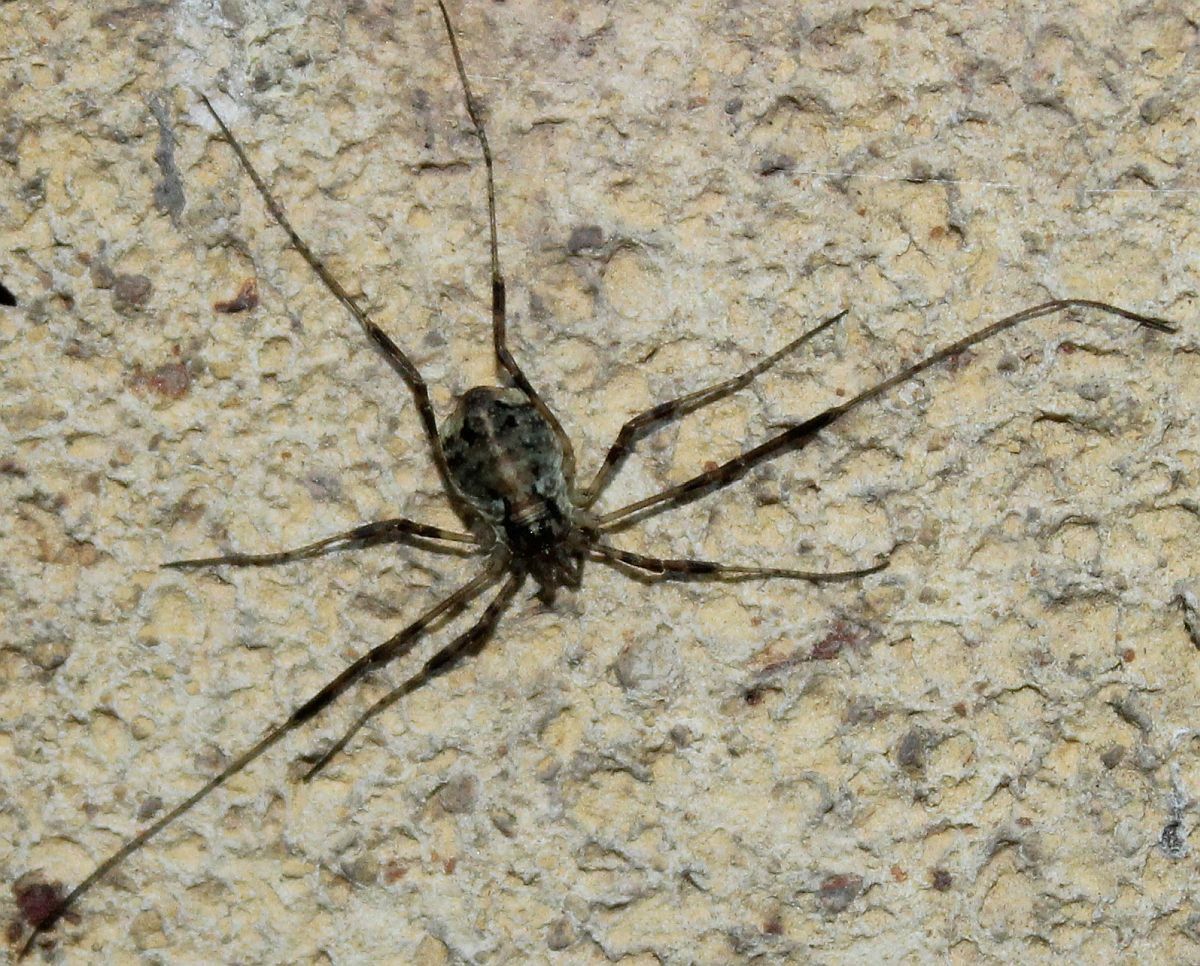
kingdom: Animalia
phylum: Arthropoda
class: Arachnida
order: Opiliones
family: Phalangiidae
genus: Paroligolophus
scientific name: Paroligolophus agrestis
